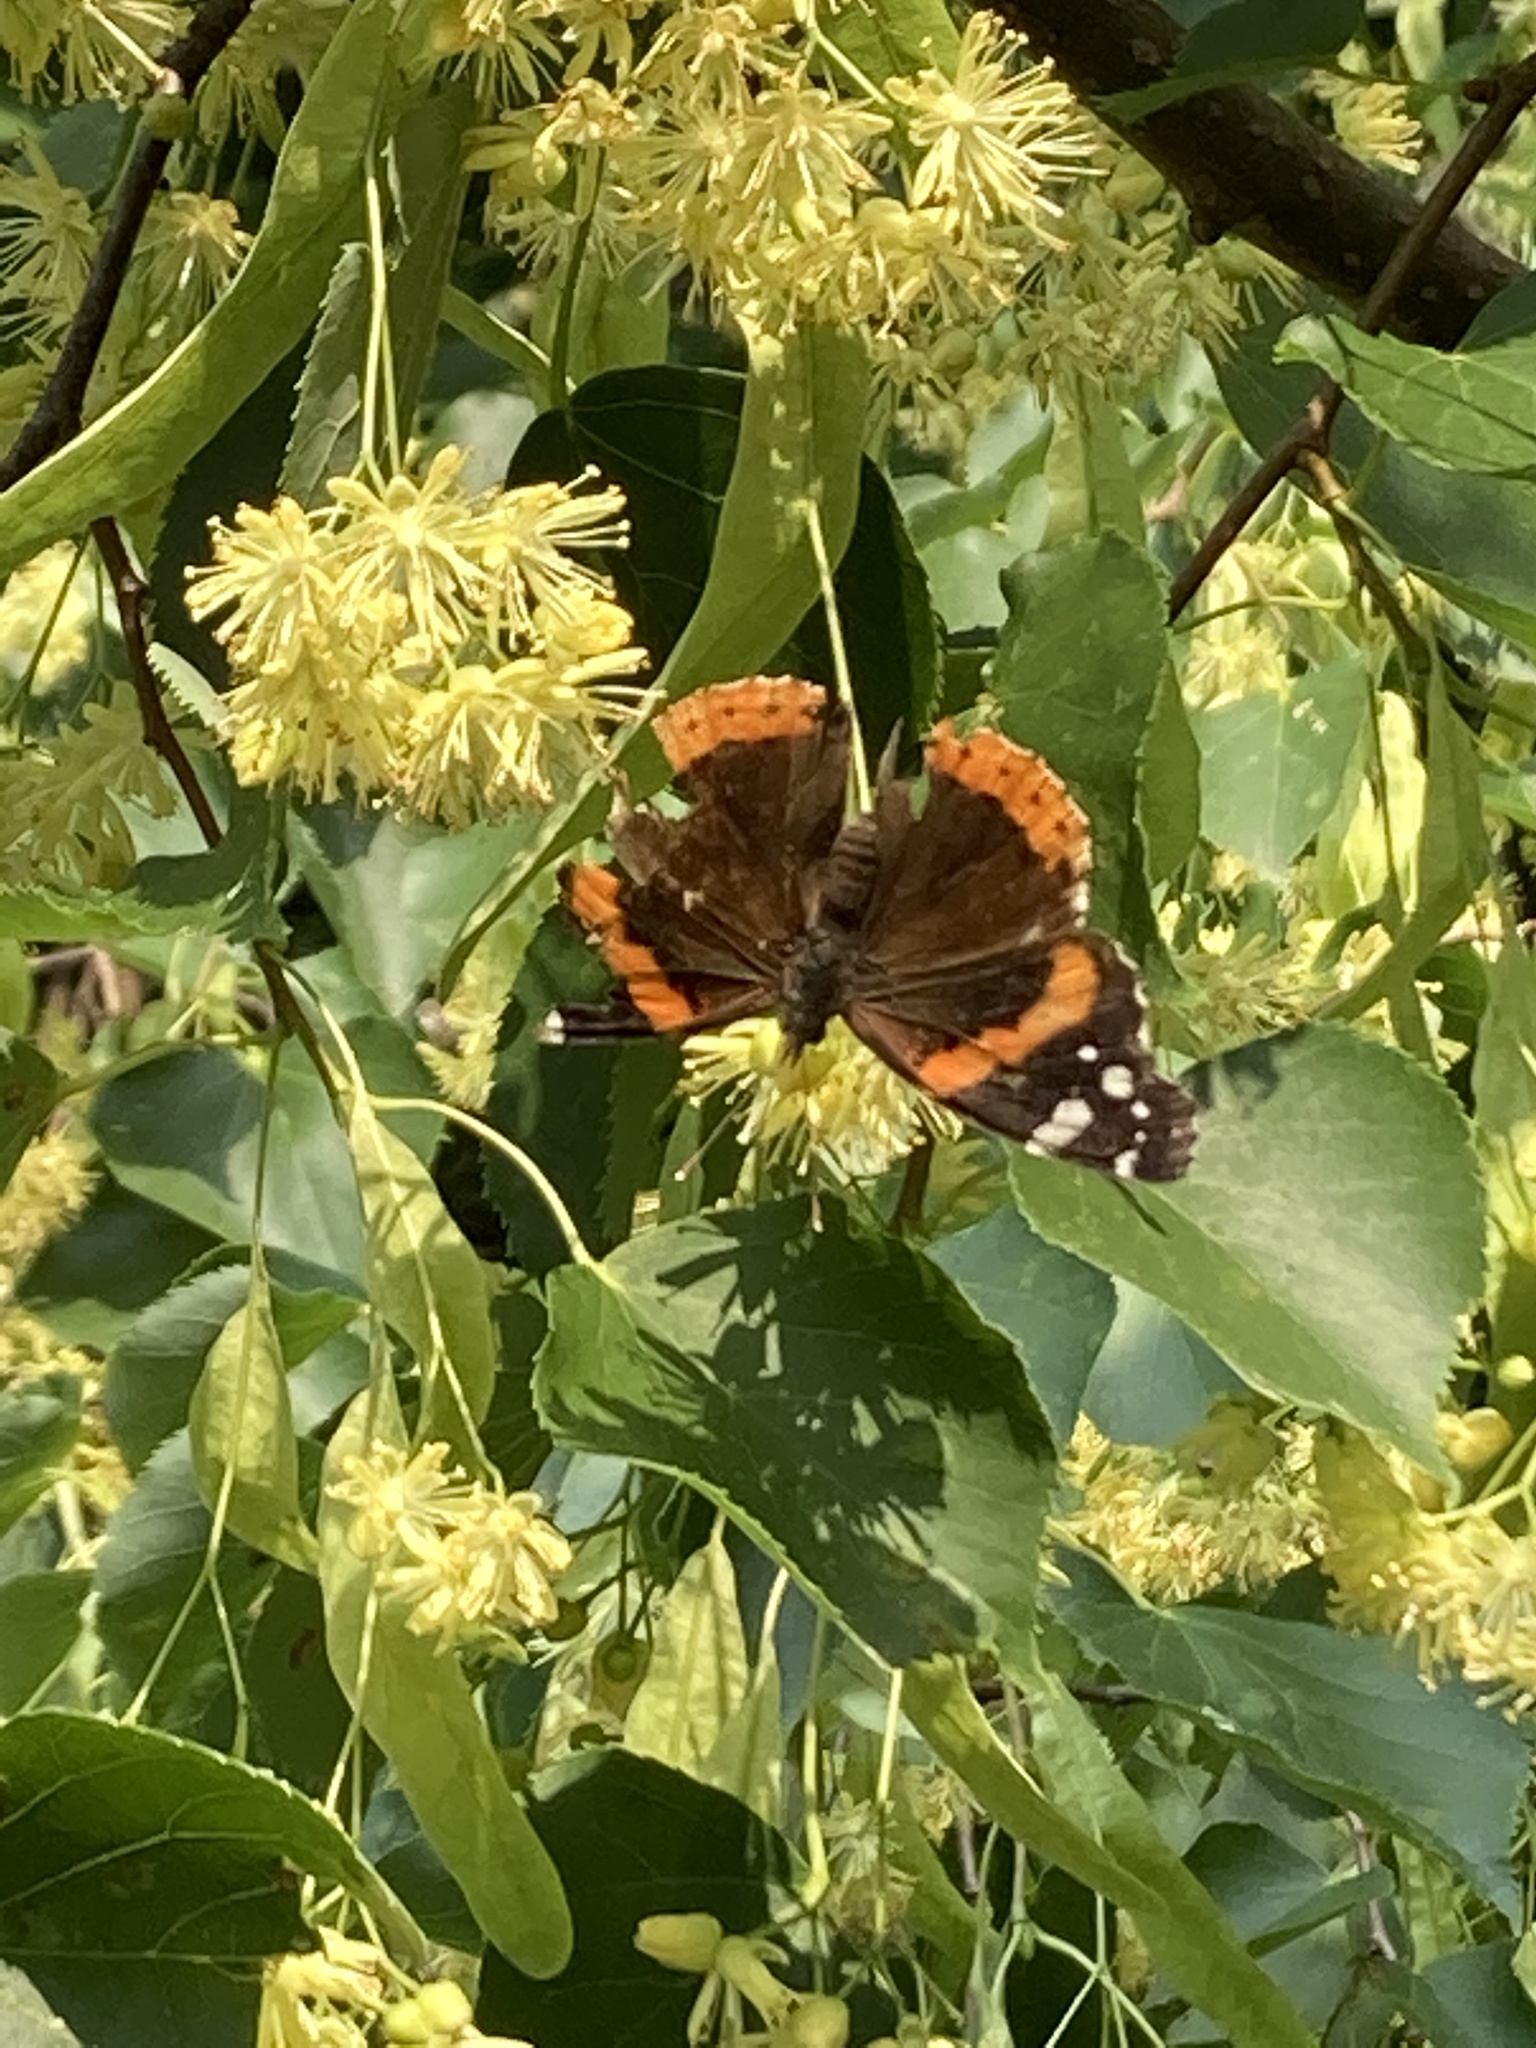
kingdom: Animalia
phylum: Arthropoda
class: Insecta
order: Lepidoptera
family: Nymphalidae
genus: Vanessa
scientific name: Vanessa atalanta
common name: Red admiral
